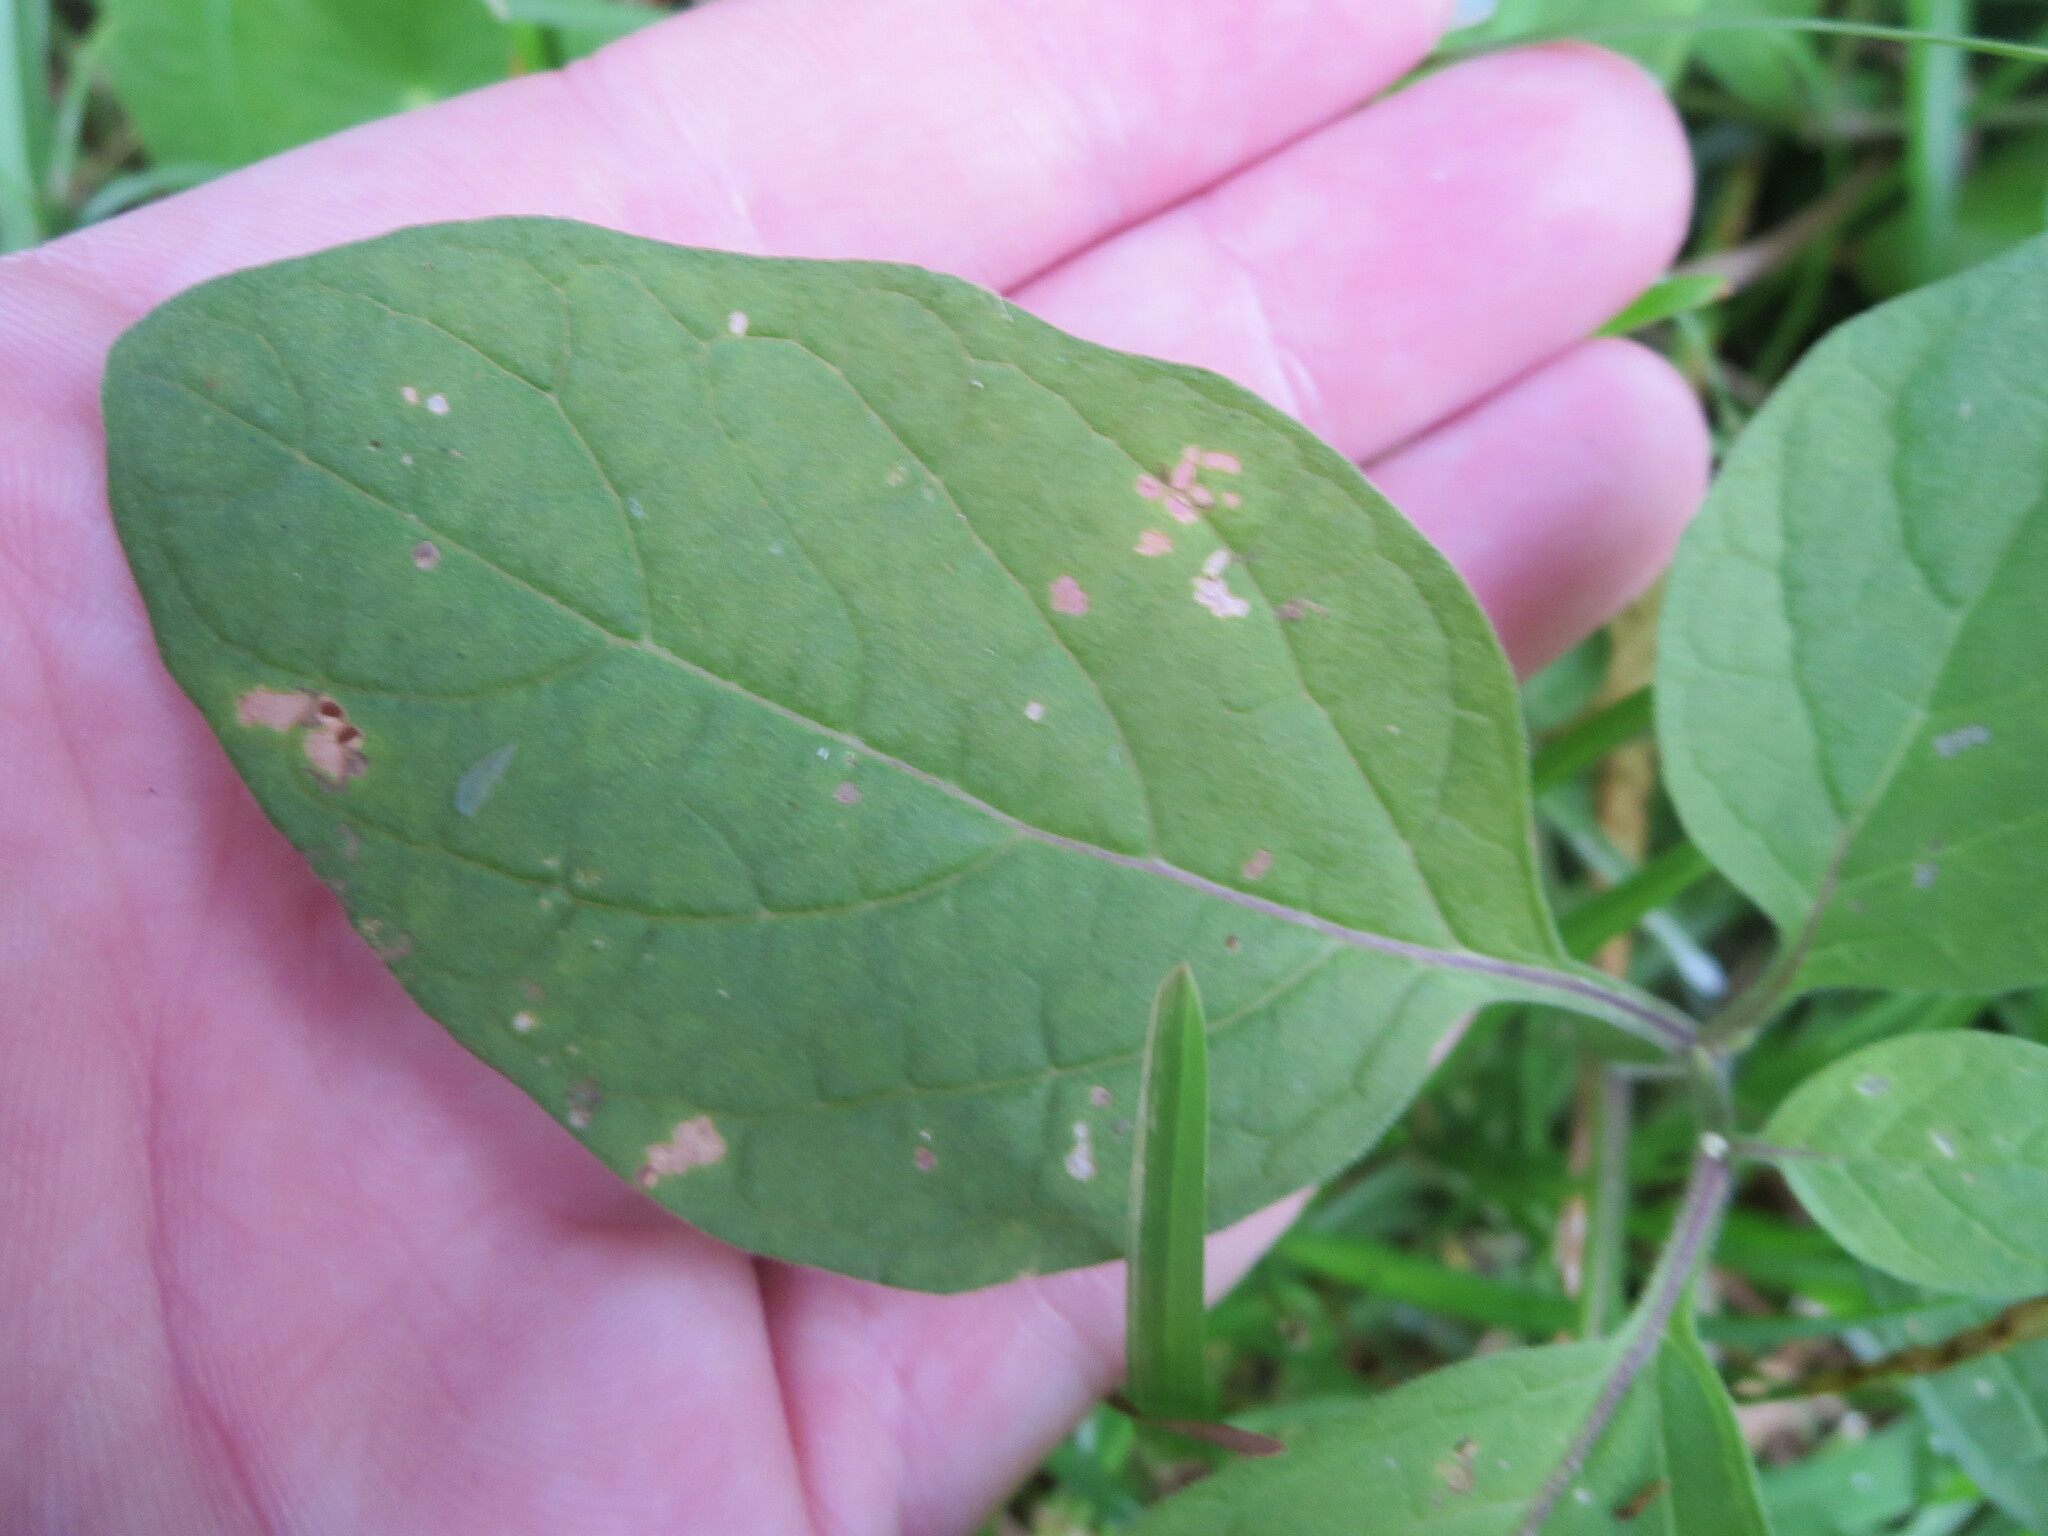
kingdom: Plantae
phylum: Tracheophyta
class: Magnoliopsida
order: Solanales
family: Solanaceae
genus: Physalis
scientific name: Physalis walteri
